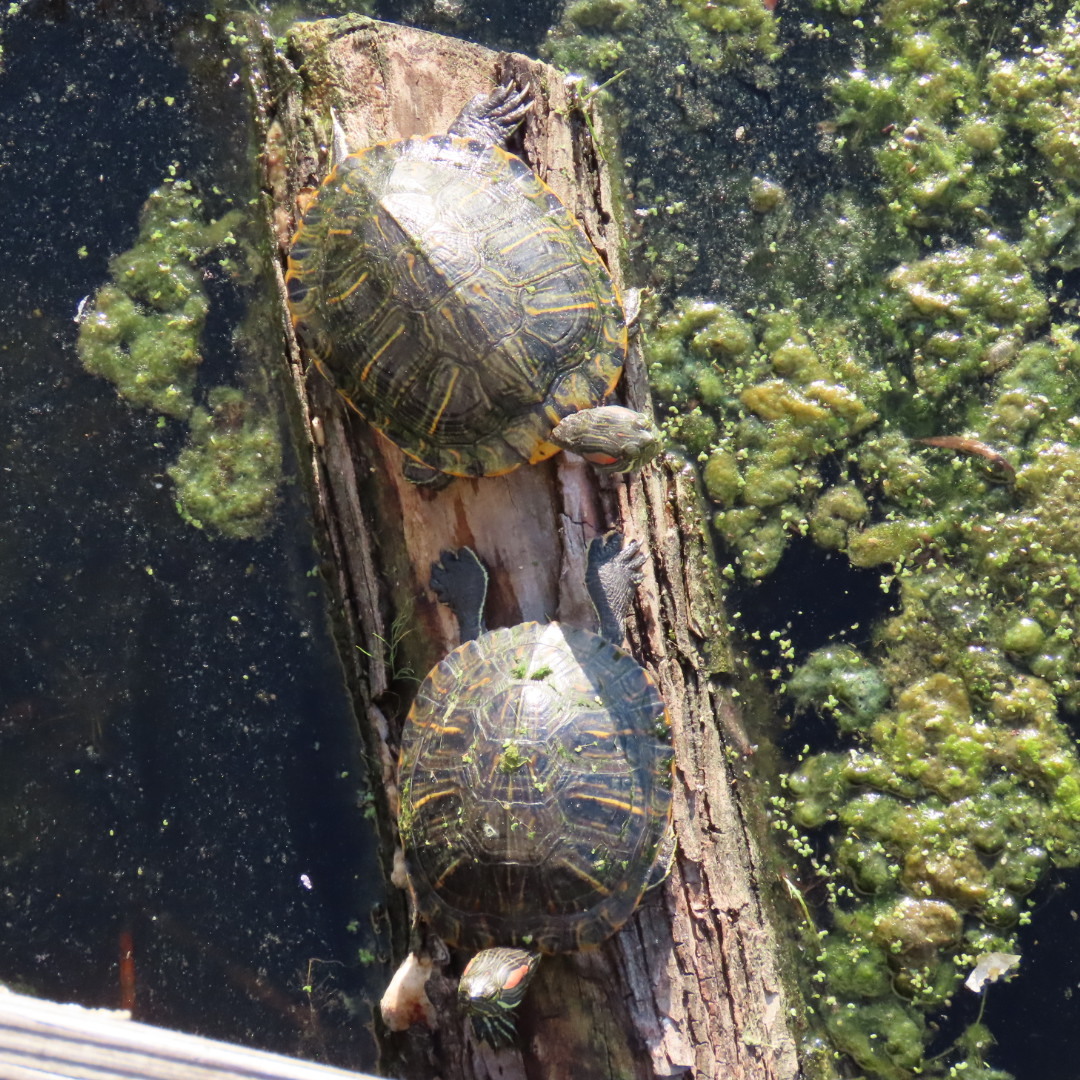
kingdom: Animalia
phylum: Chordata
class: Testudines
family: Emydidae
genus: Trachemys
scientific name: Trachemys scripta
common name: Slider
